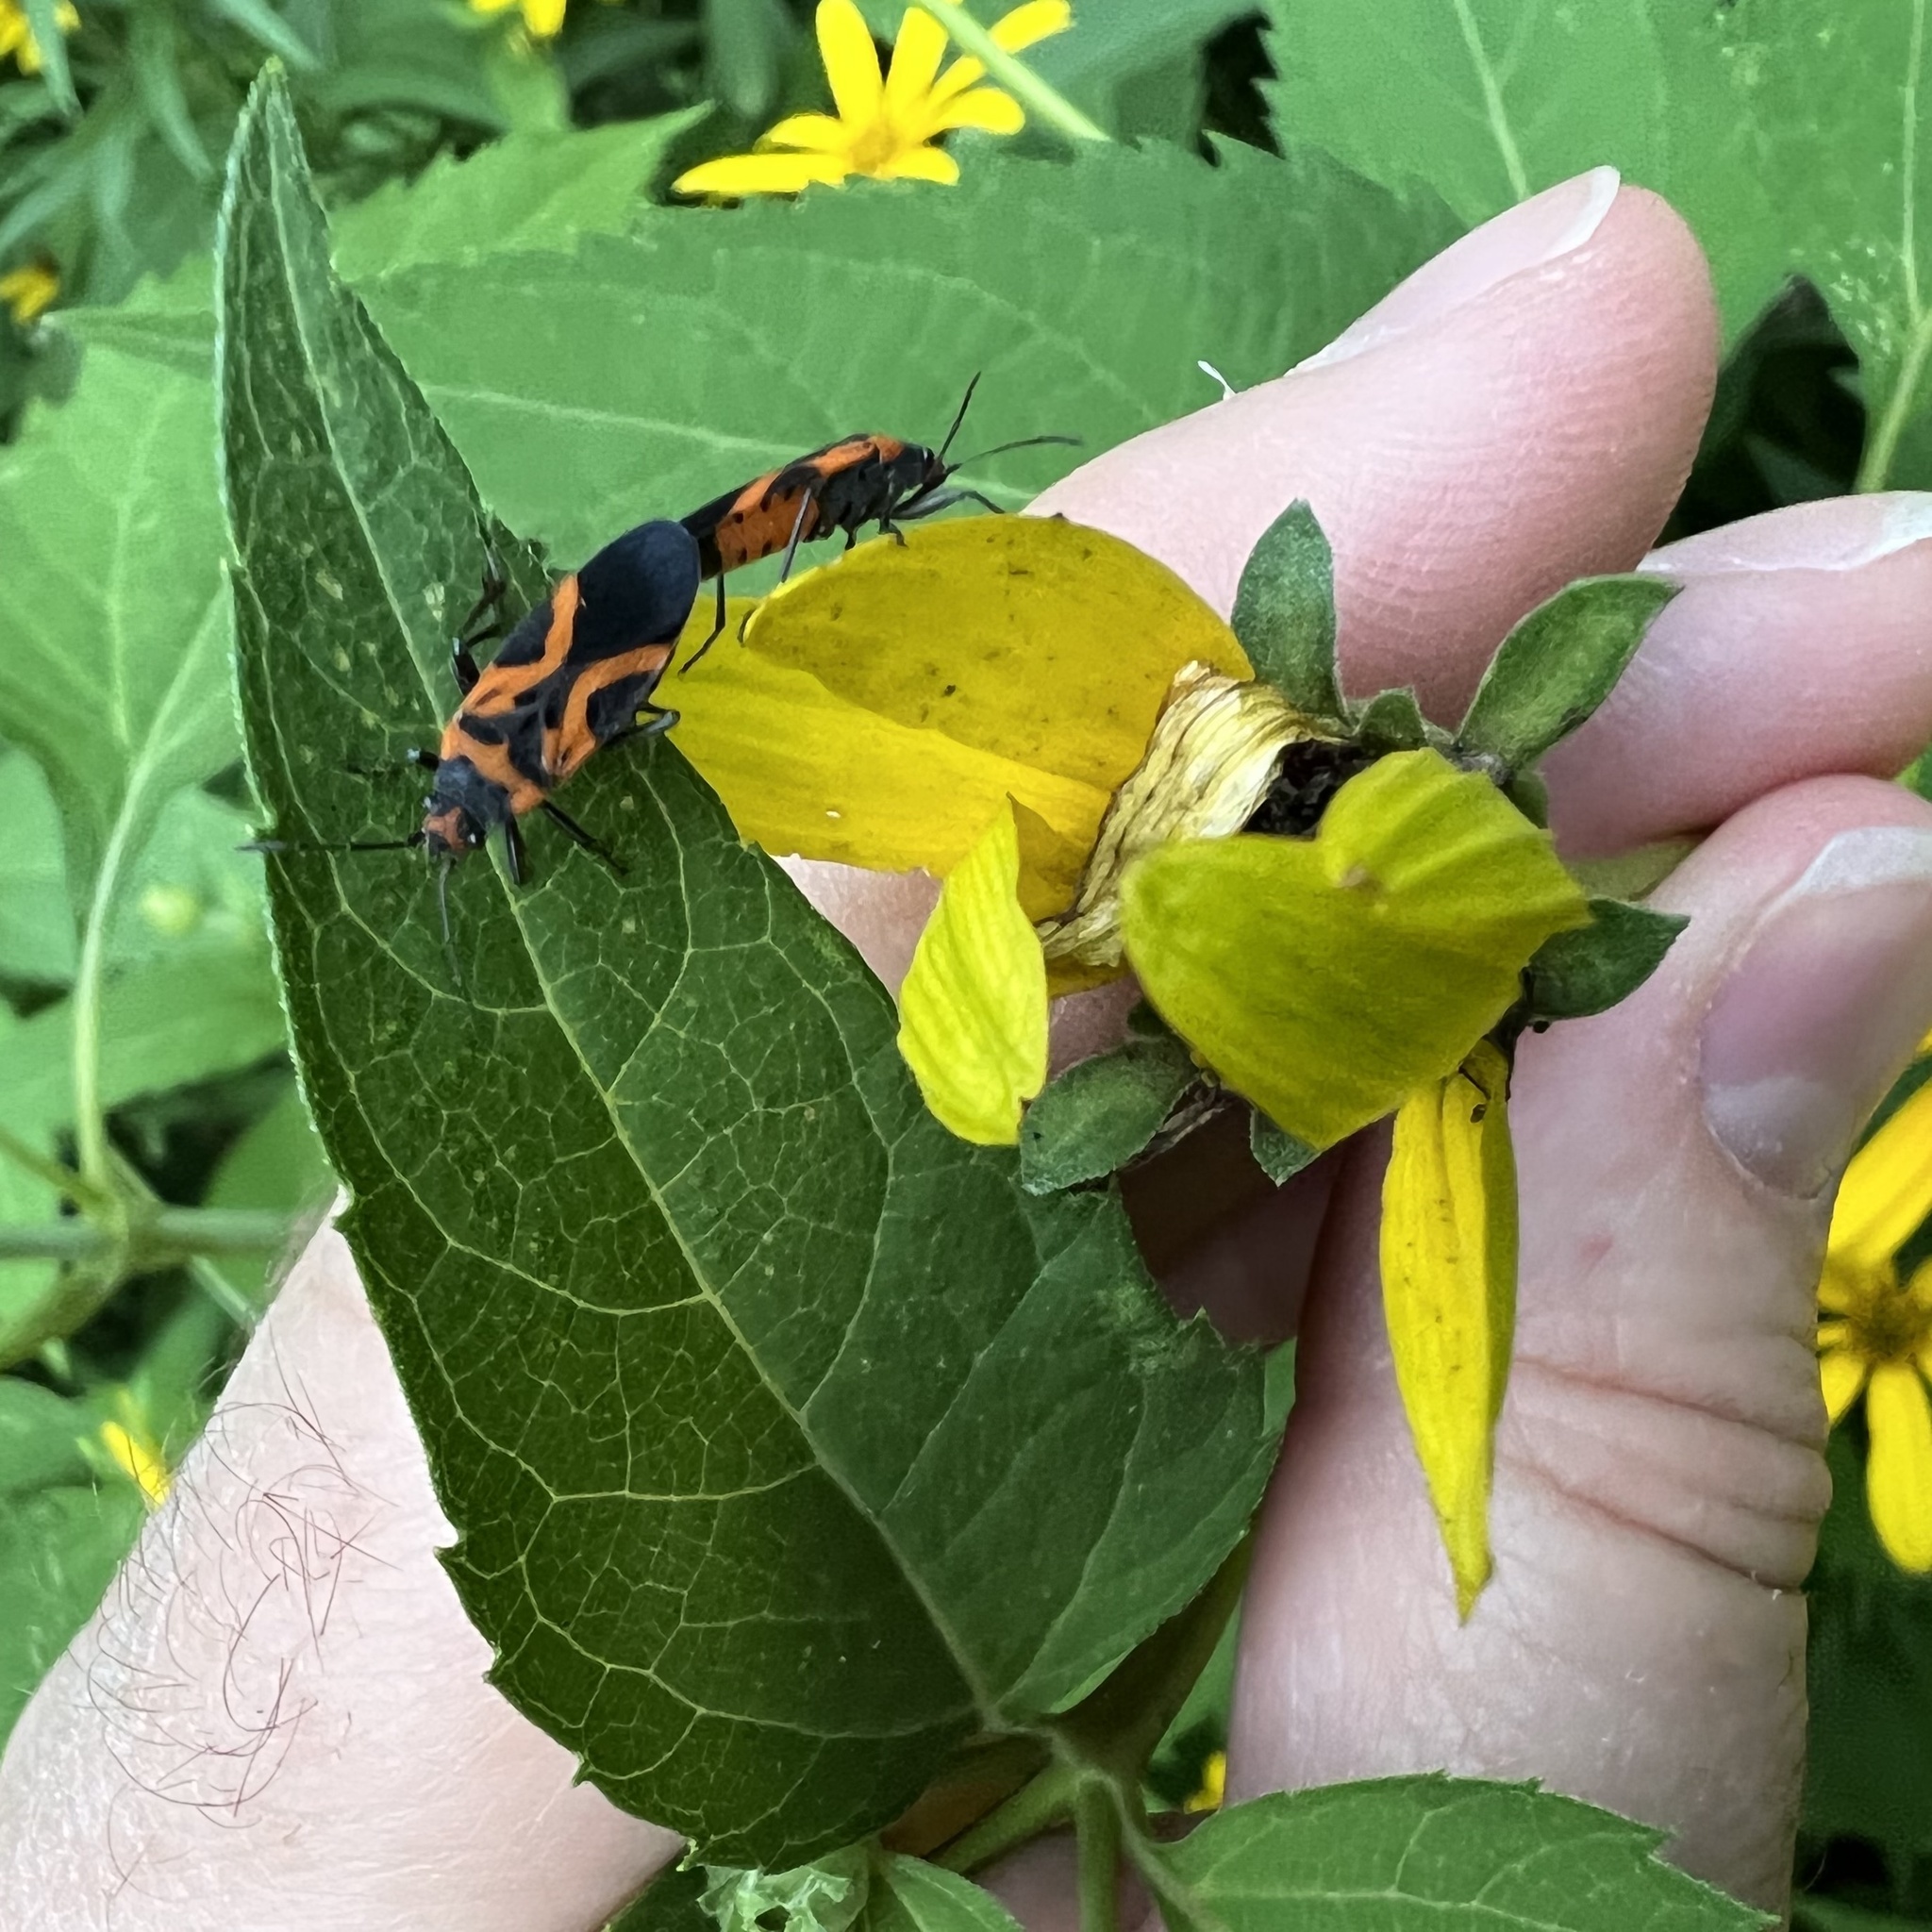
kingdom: Animalia
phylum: Arthropoda
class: Insecta
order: Hemiptera
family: Lygaeidae
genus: Lygaeus
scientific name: Lygaeus turcicus
